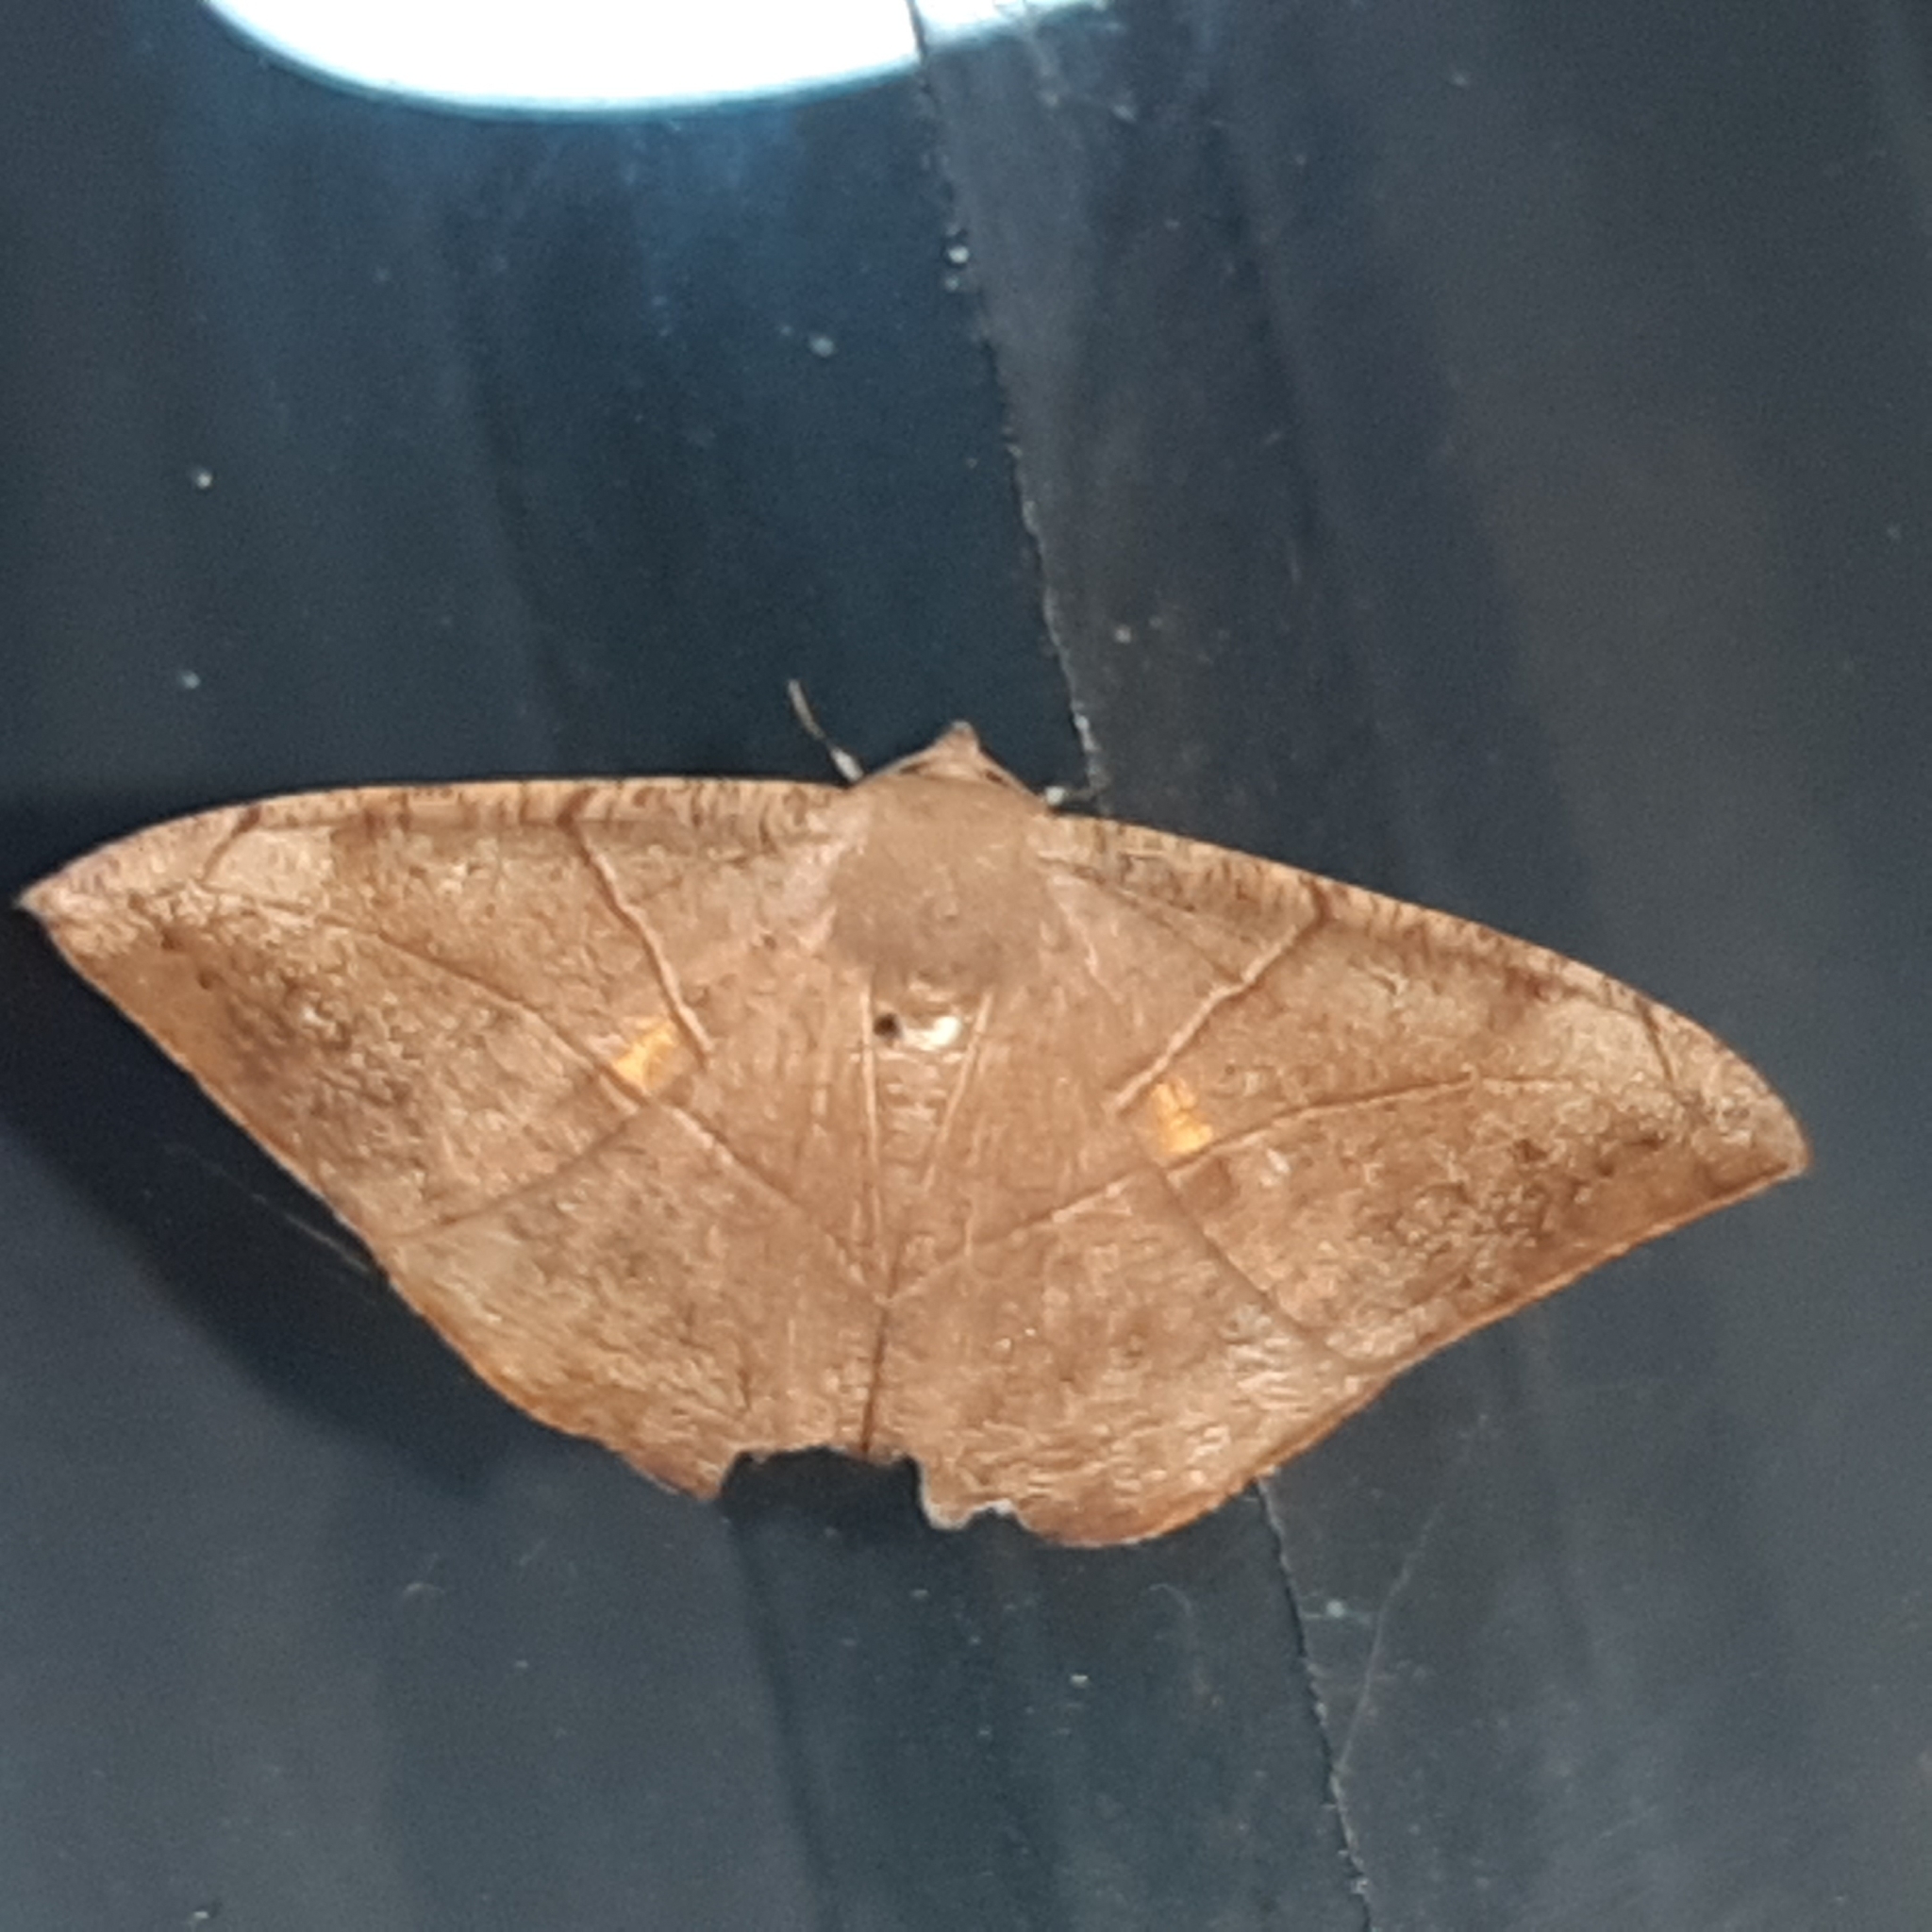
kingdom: Animalia
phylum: Arthropoda
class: Insecta
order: Lepidoptera
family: Geometridae
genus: Oxydia
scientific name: Oxydia trychiata
